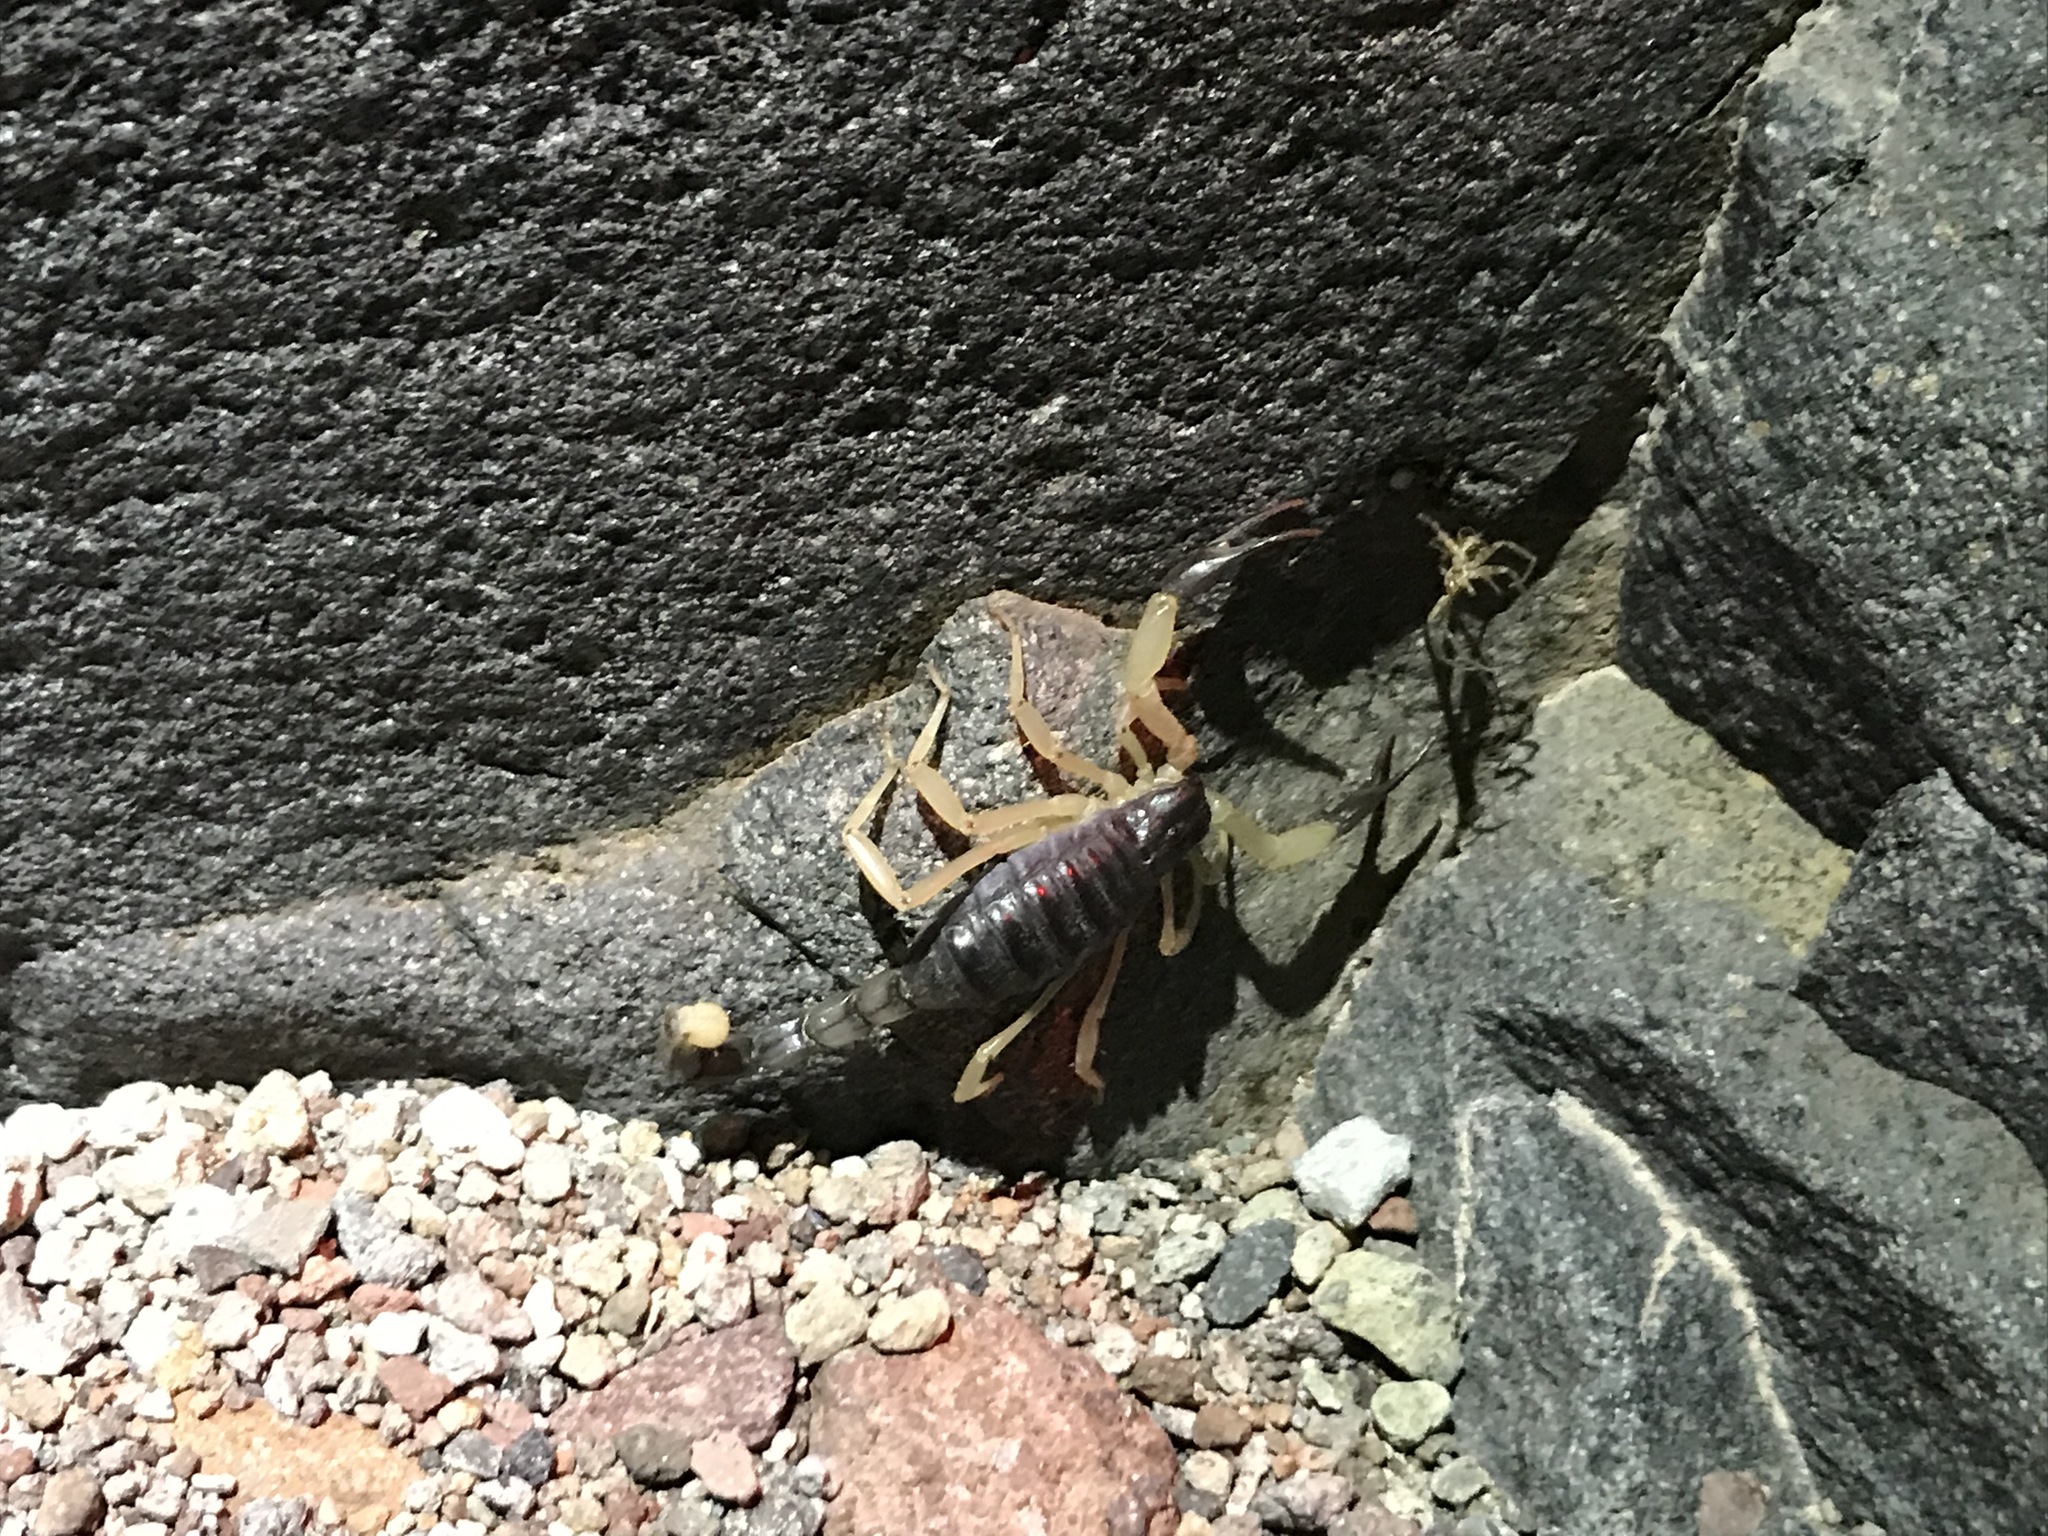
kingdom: Animalia
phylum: Arthropoda
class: Arachnida
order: Scorpiones
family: Hadruridae
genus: Hadrurus
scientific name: Hadrurus pinteri
